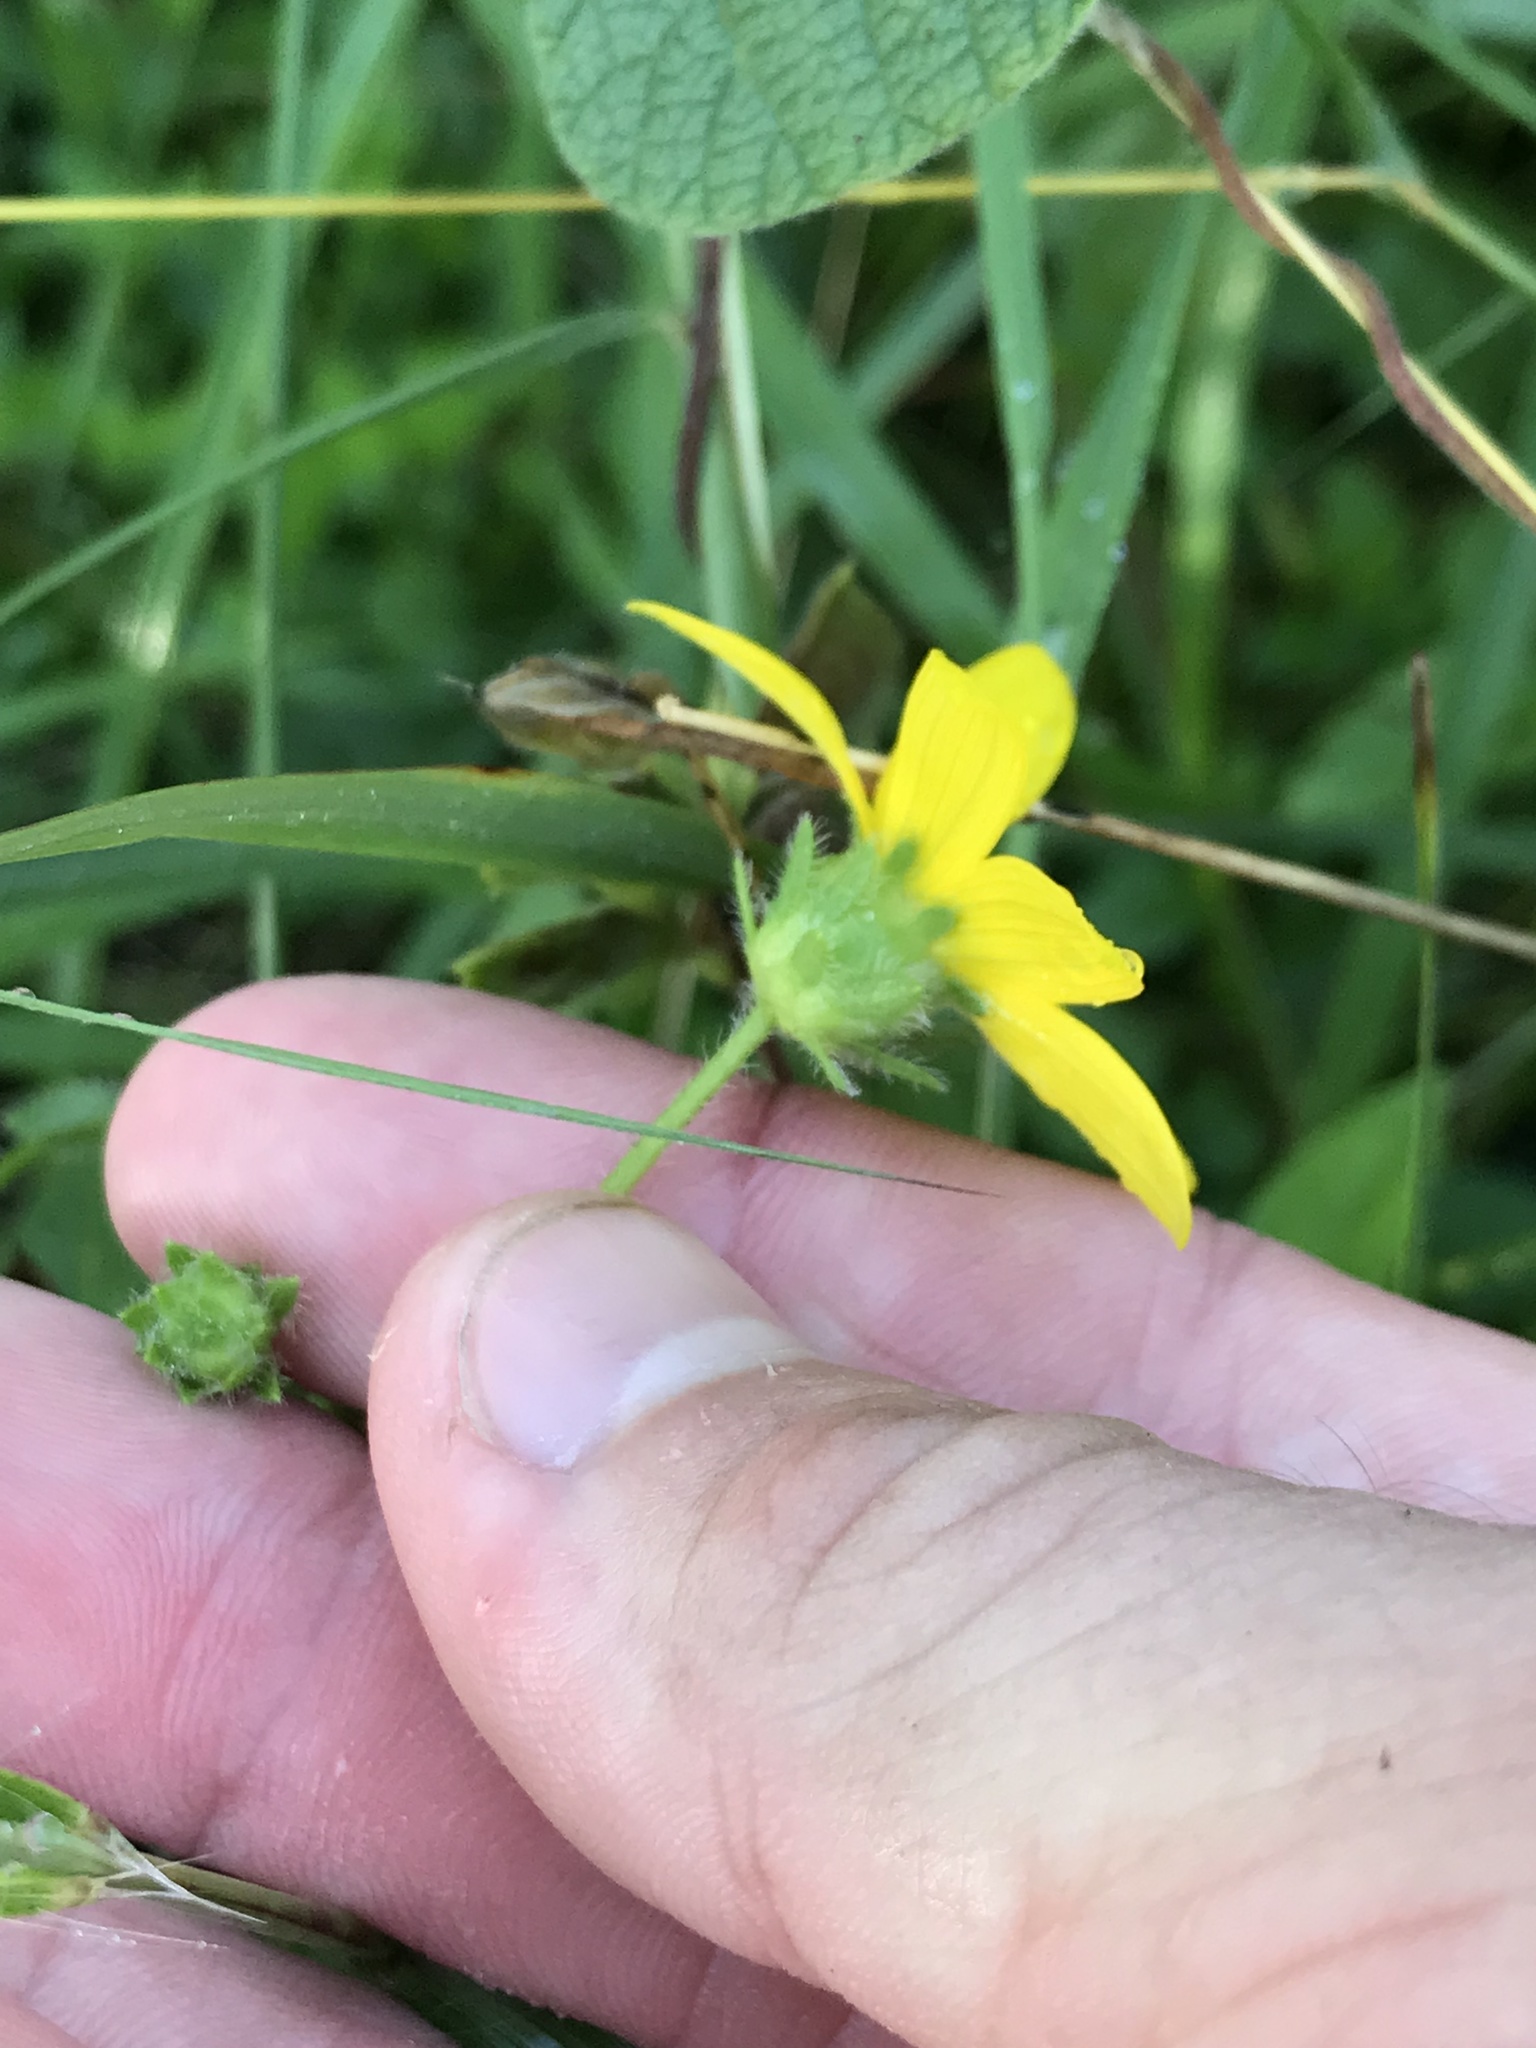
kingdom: Plantae
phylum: Tracheophyta
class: Magnoliopsida
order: Asterales
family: Asteraceae
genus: Engelmannia
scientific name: Engelmannia peristenia
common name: Engelmann's daisy
